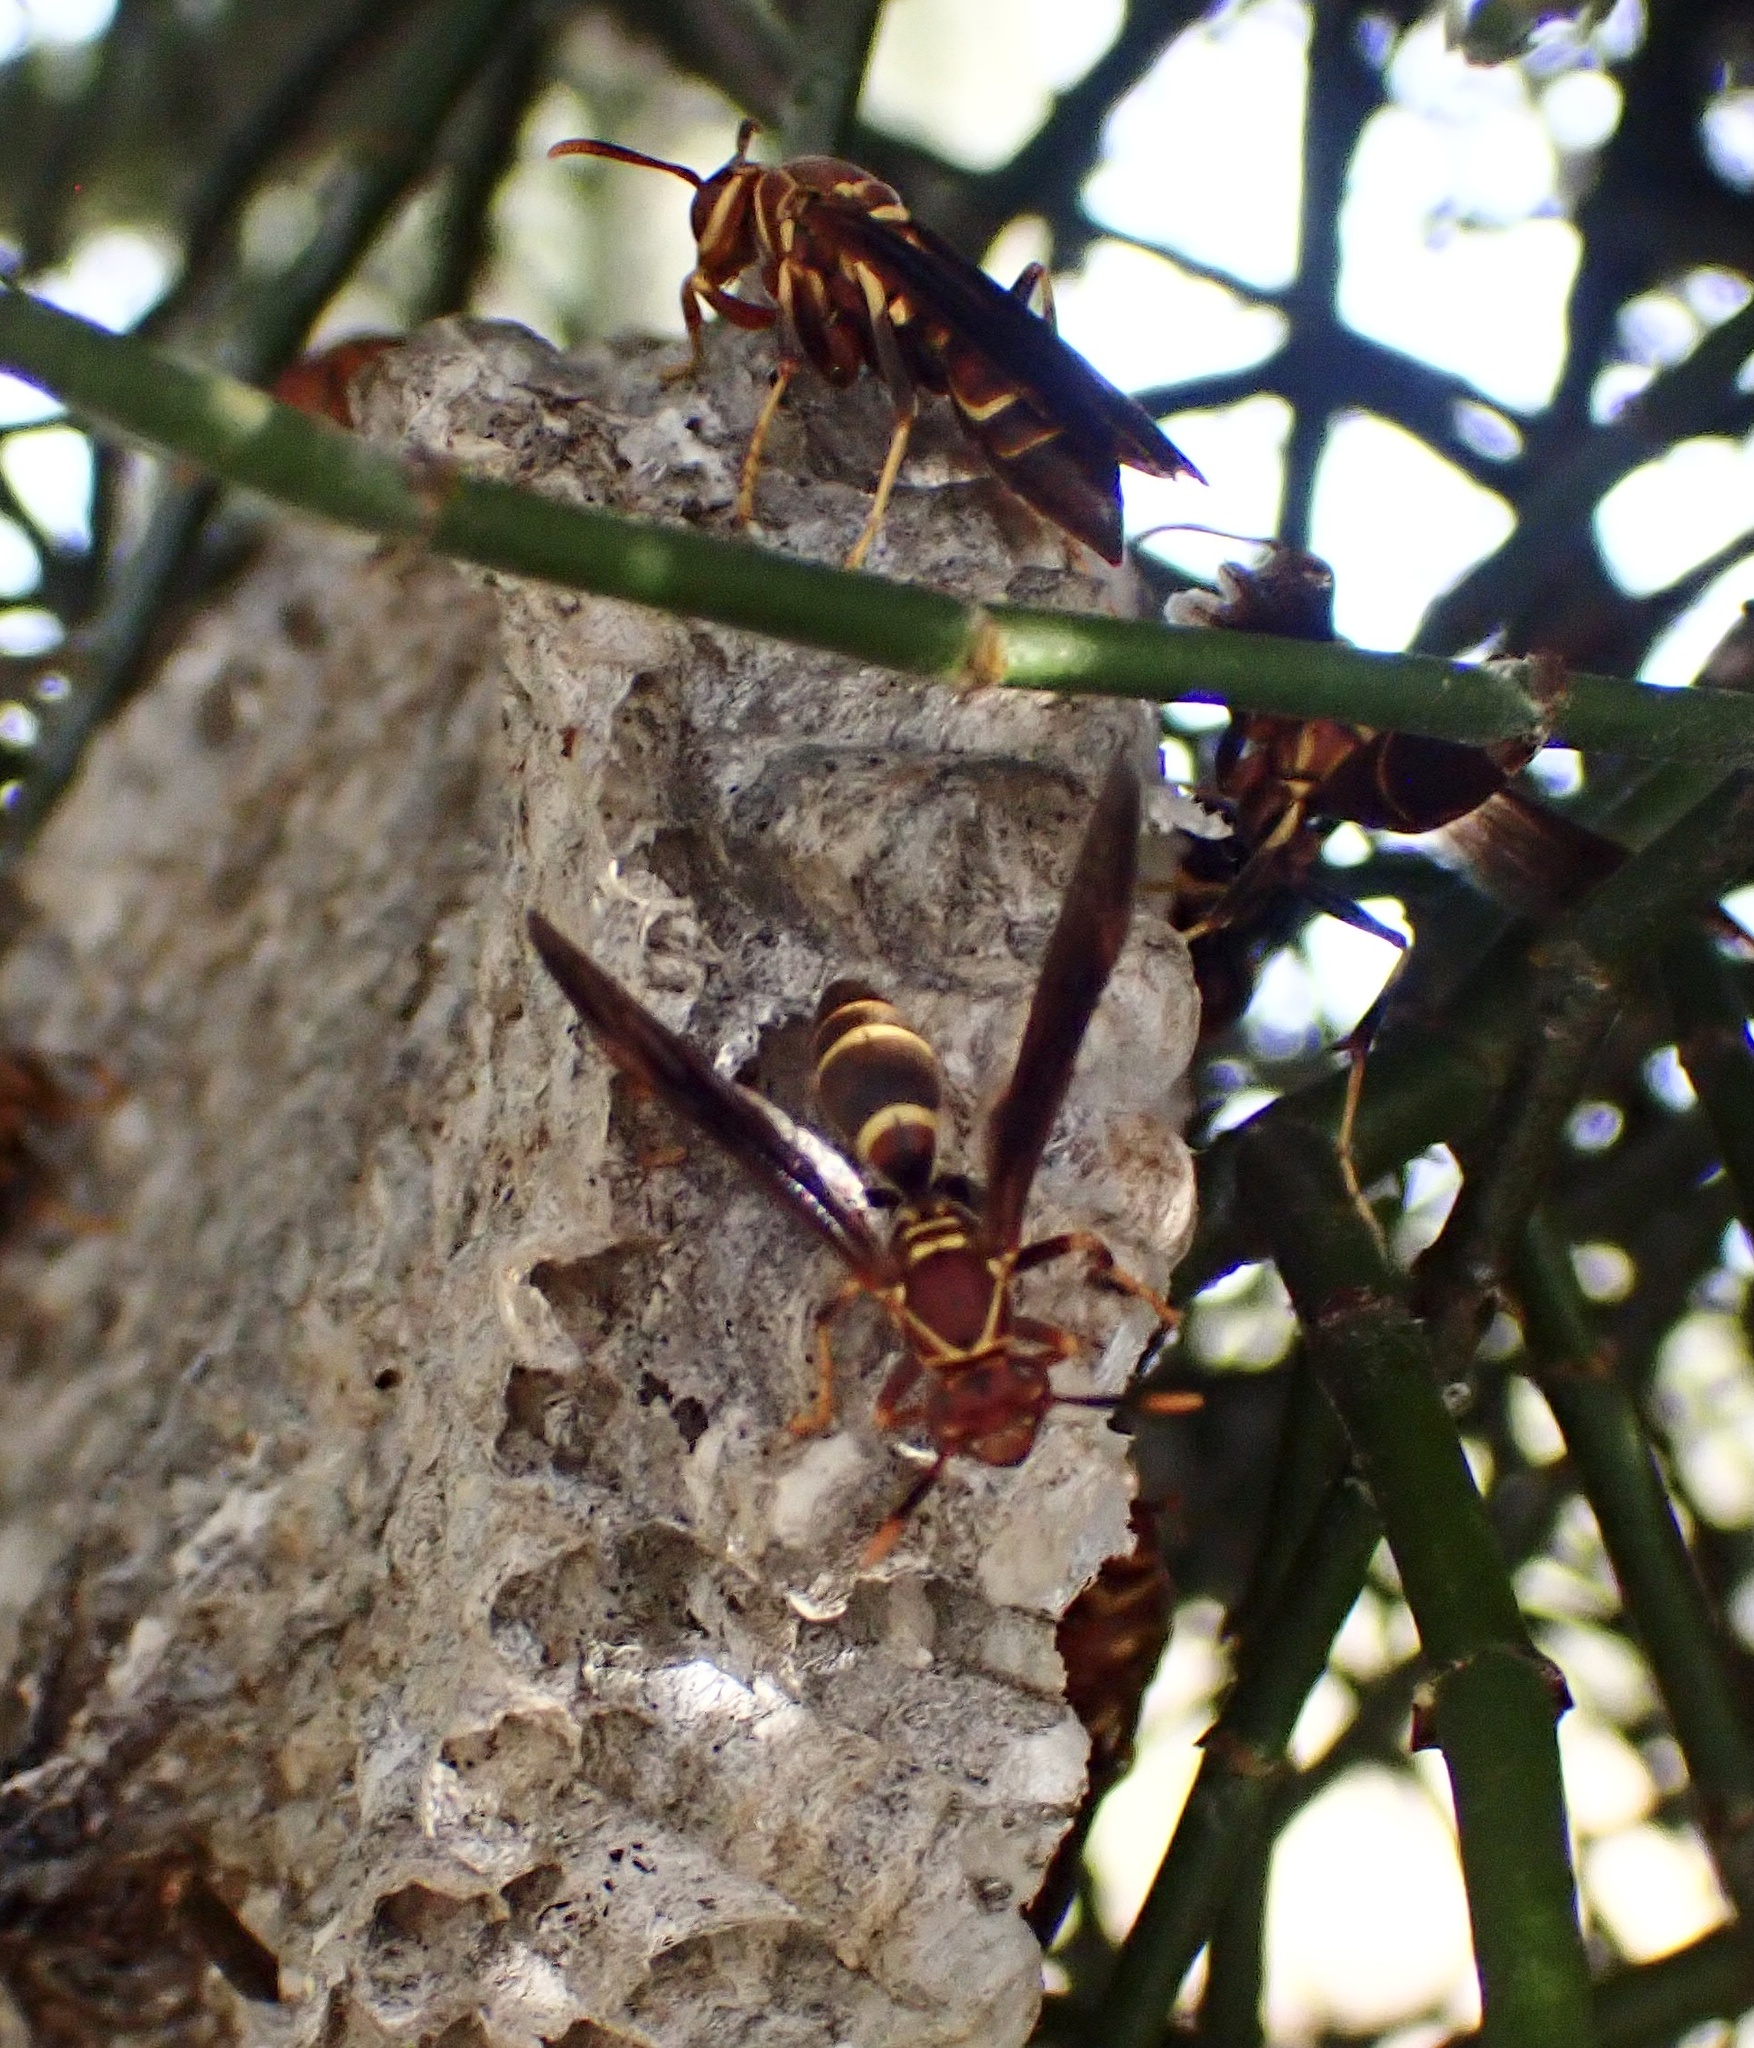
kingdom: Animalia
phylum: Arthropoda
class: Insecta
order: Hymenoptera
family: Eumenidae
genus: Polistes
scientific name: Polistes arizonensis
